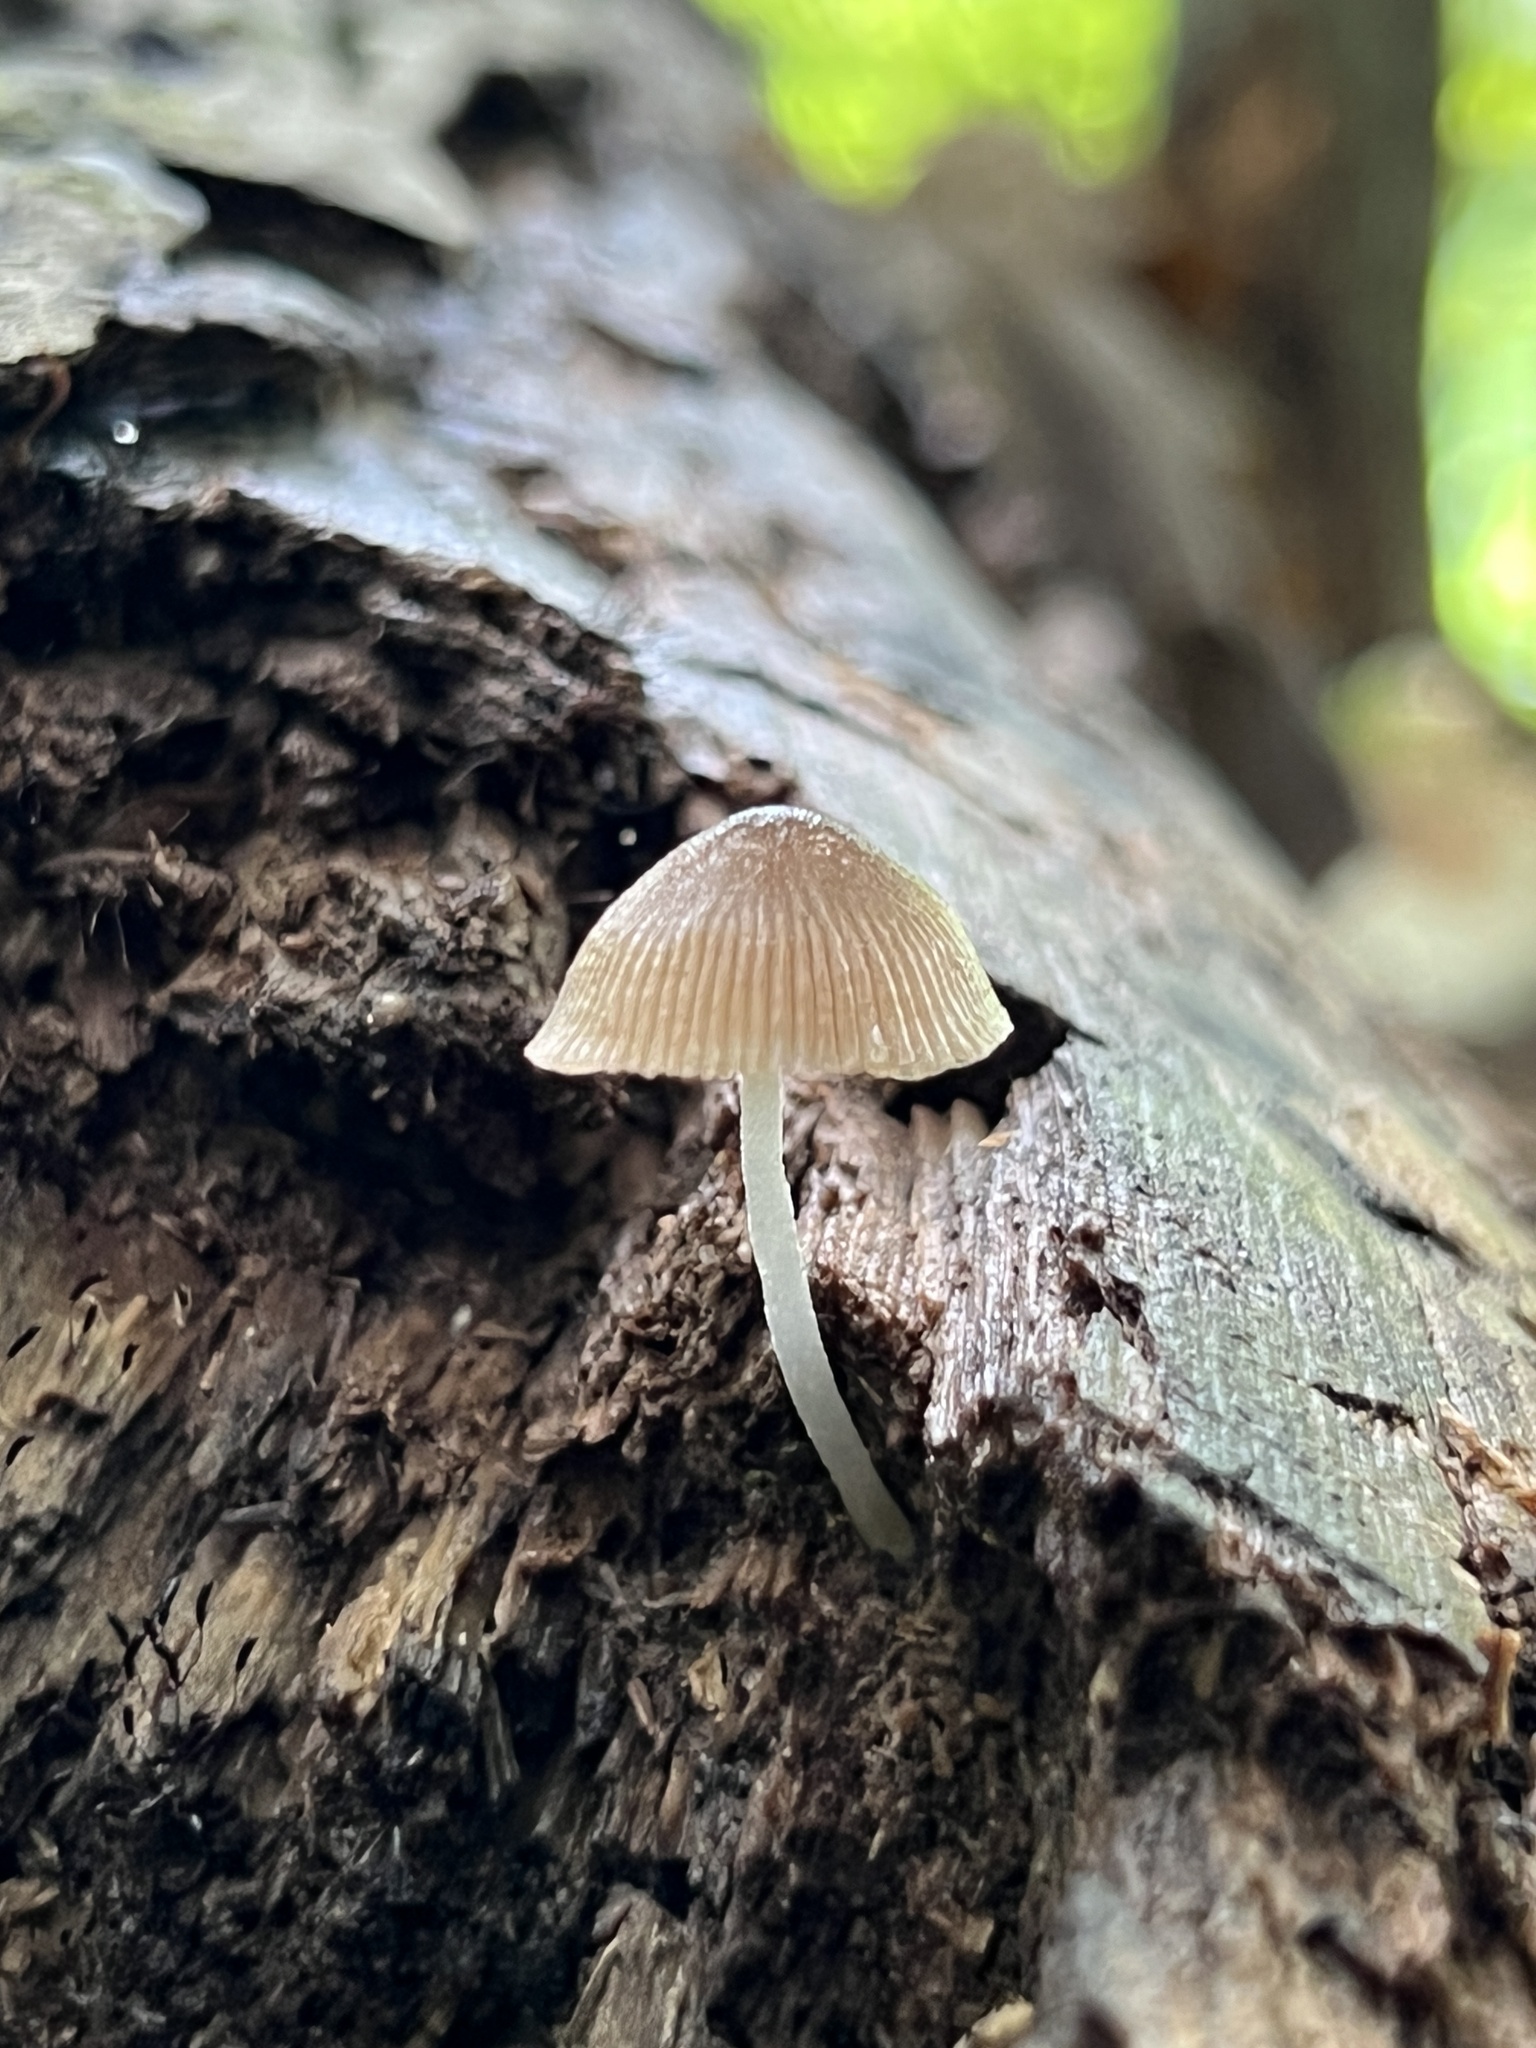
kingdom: Fungi
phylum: Basidiomycota
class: Agaricomycetes
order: Agaricales
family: Pluteaceae
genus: Pluteus
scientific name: Pluteus longistriatus
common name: Pleated pluteus
